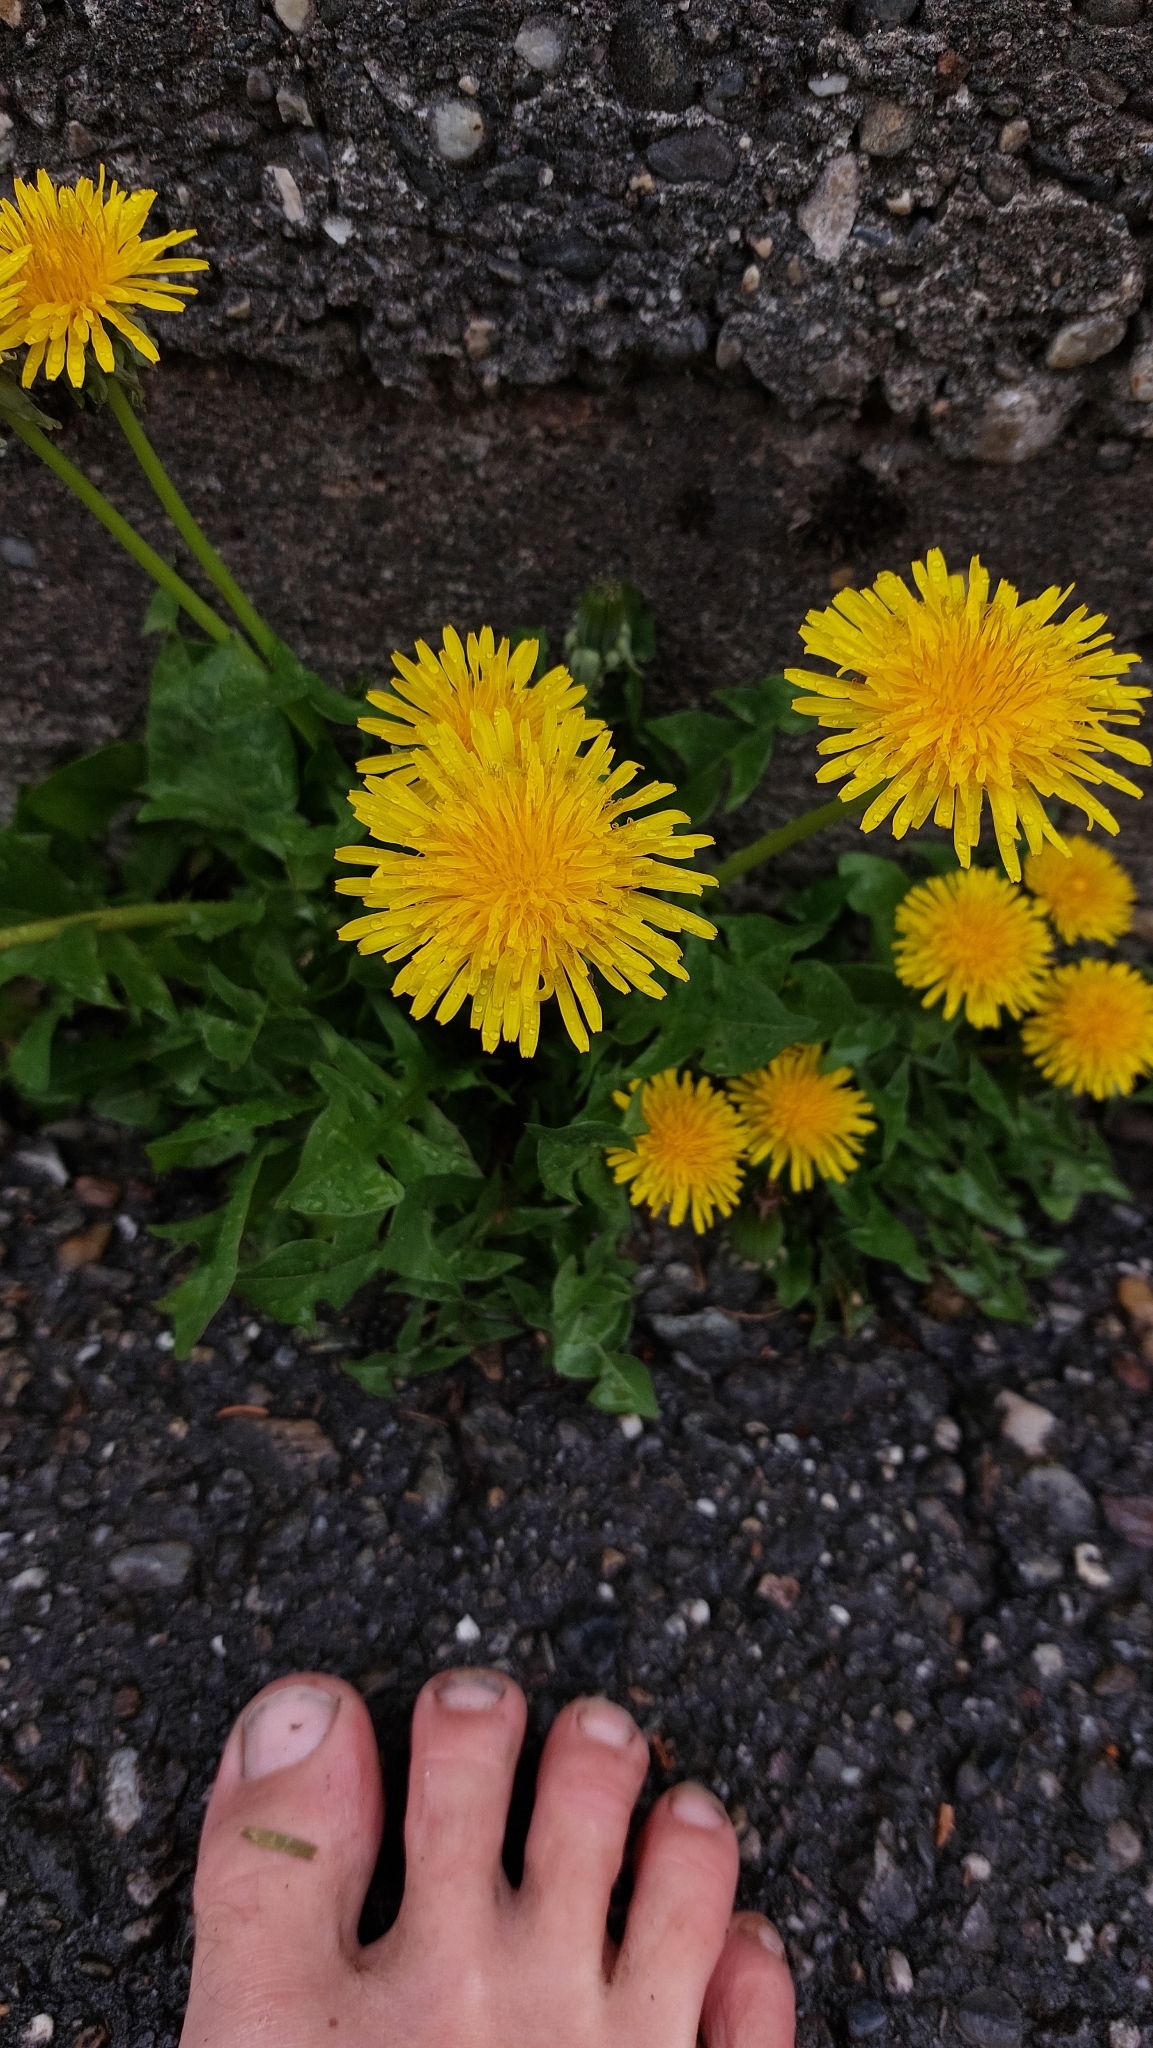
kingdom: Plantae
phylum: Tracheophyta
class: Magnoliopsida
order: Asterales
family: Asteraceae
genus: Taraxacum
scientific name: Taraxacum
